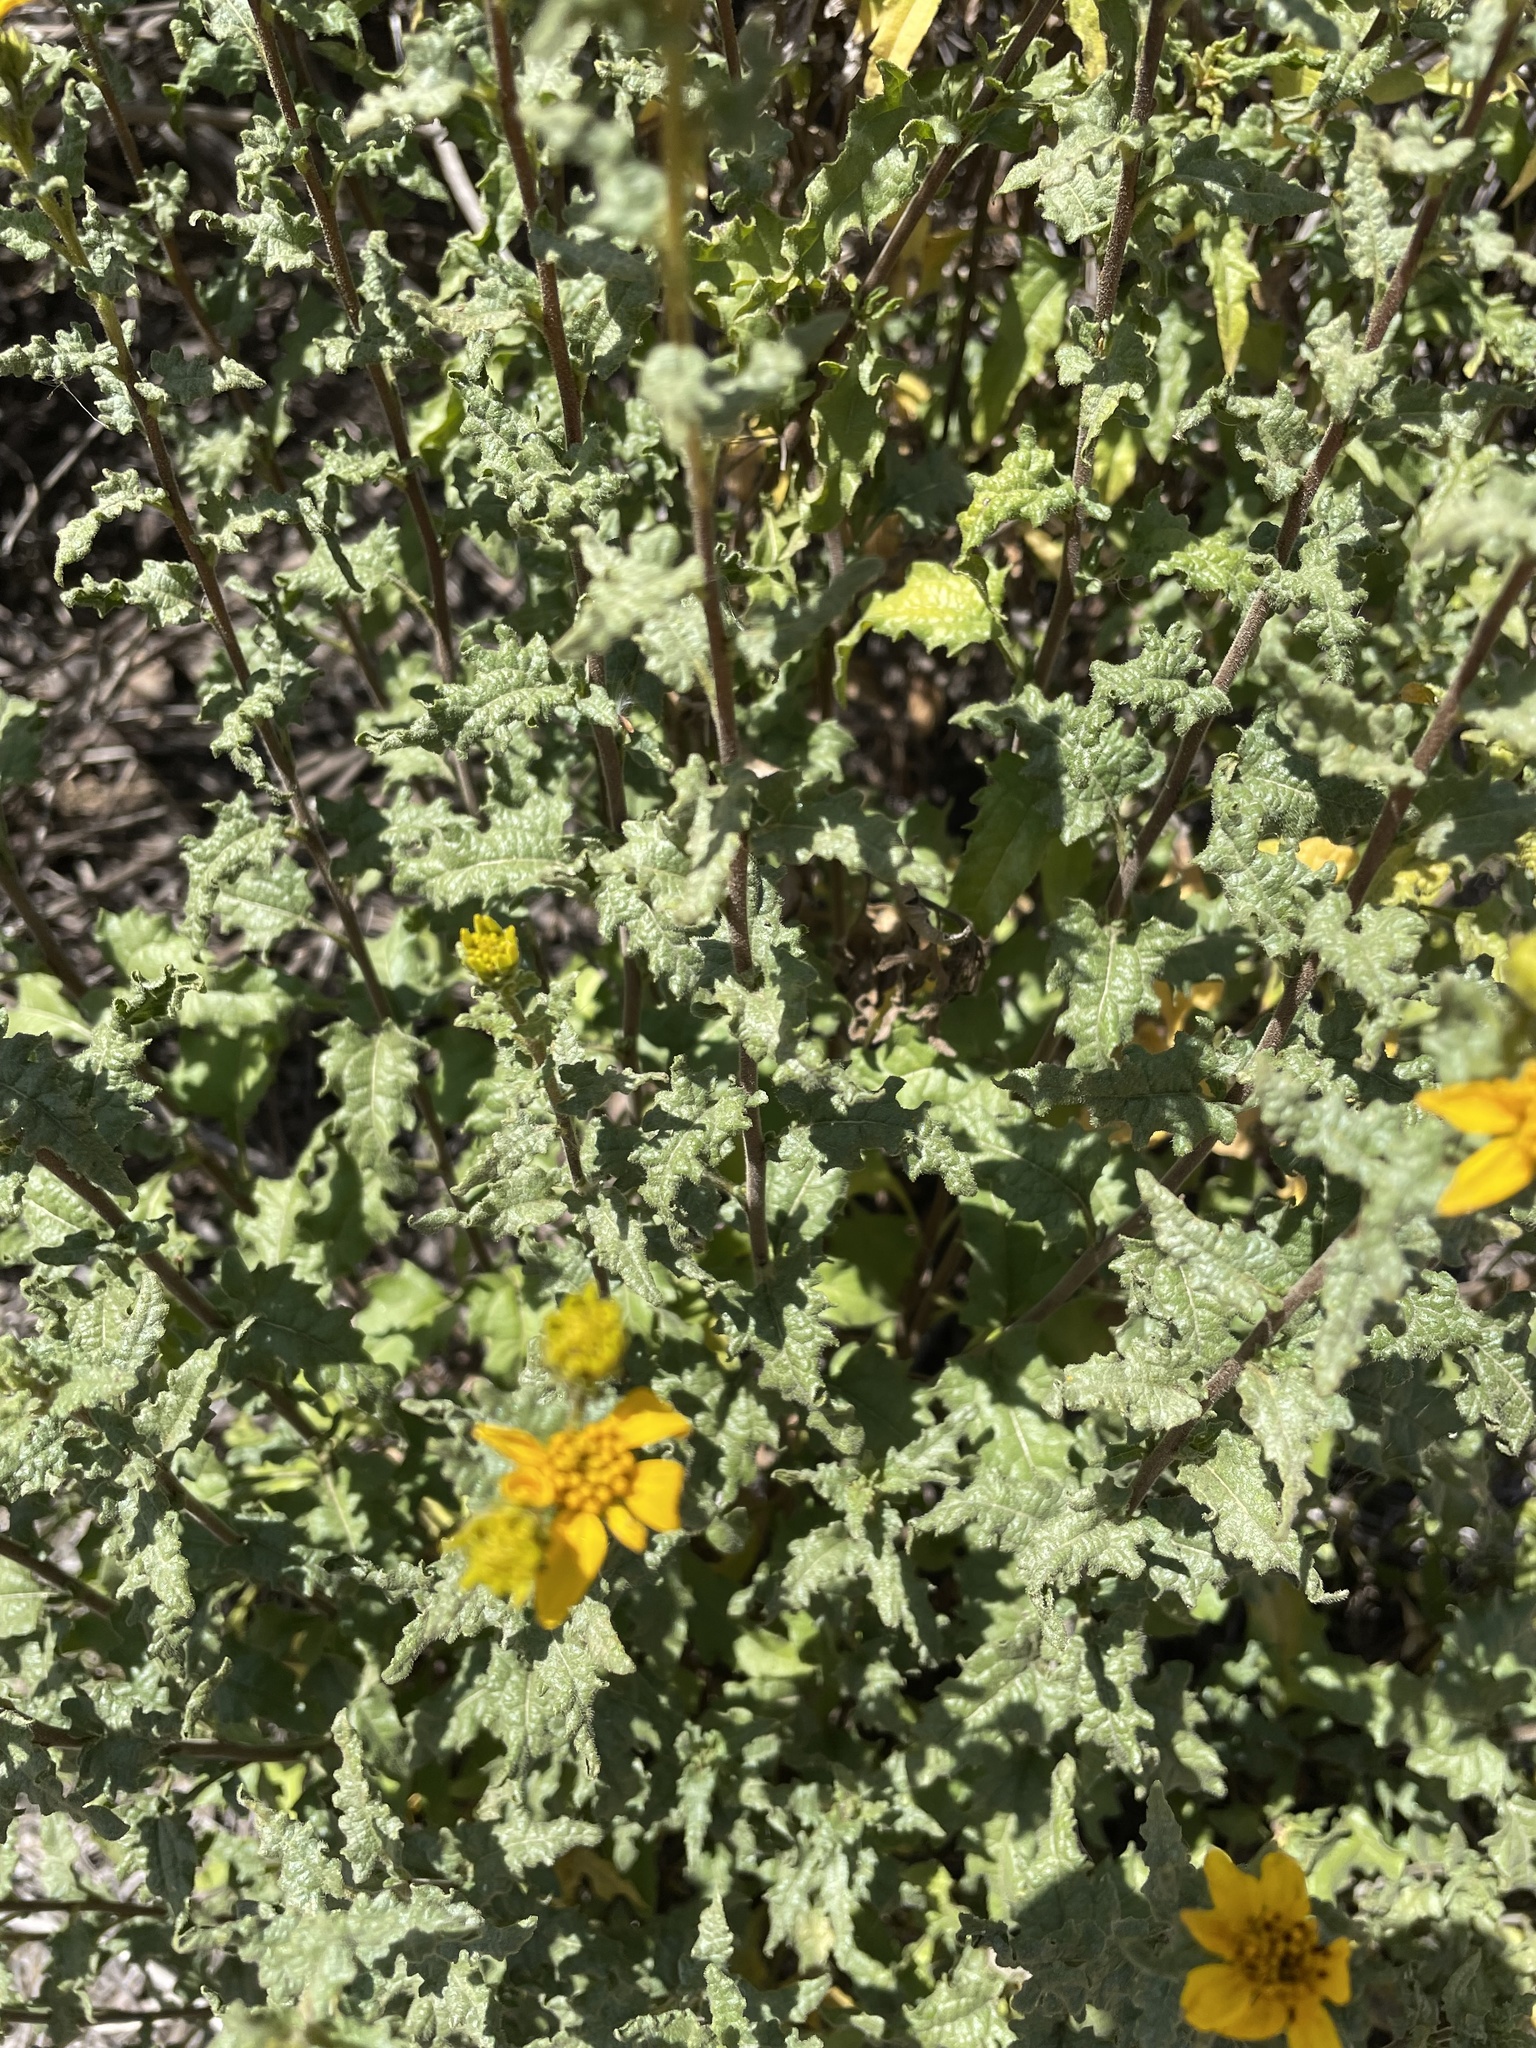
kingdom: Plantae
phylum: Tracheophyta
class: Magnoliopsida
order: Asterales
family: Asteraceae
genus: Bahiopsis
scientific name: Bahiopsis laciniata
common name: San diego county viguiera
